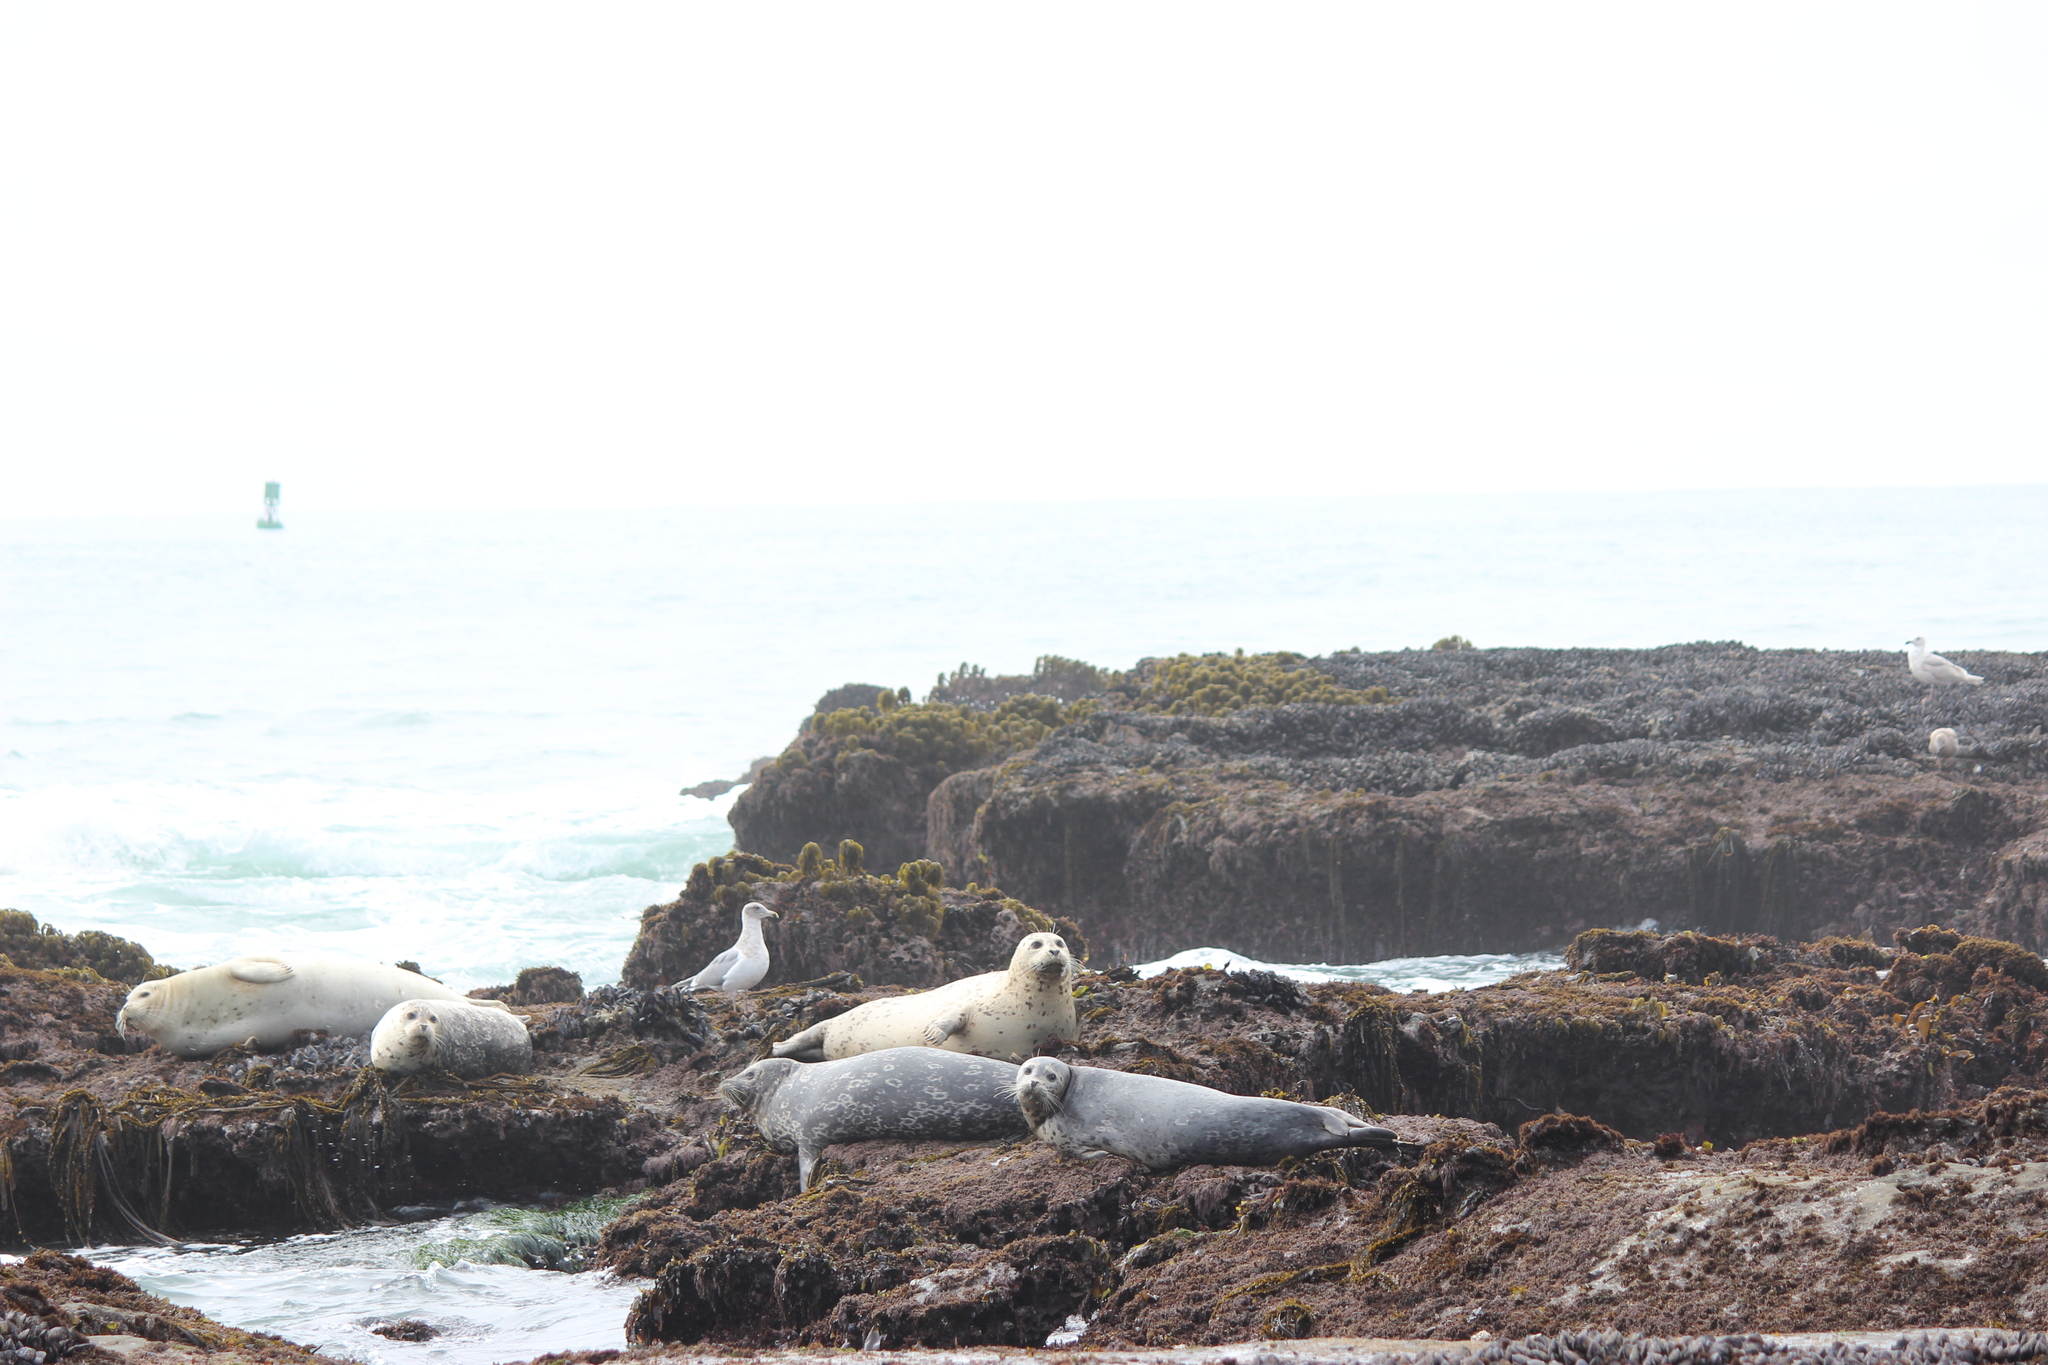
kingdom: Animalia
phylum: Chordata
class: Mammalia
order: Carnivora
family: Phocidae
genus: Phoca
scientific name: Phoca vitulina
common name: Harbor seal
